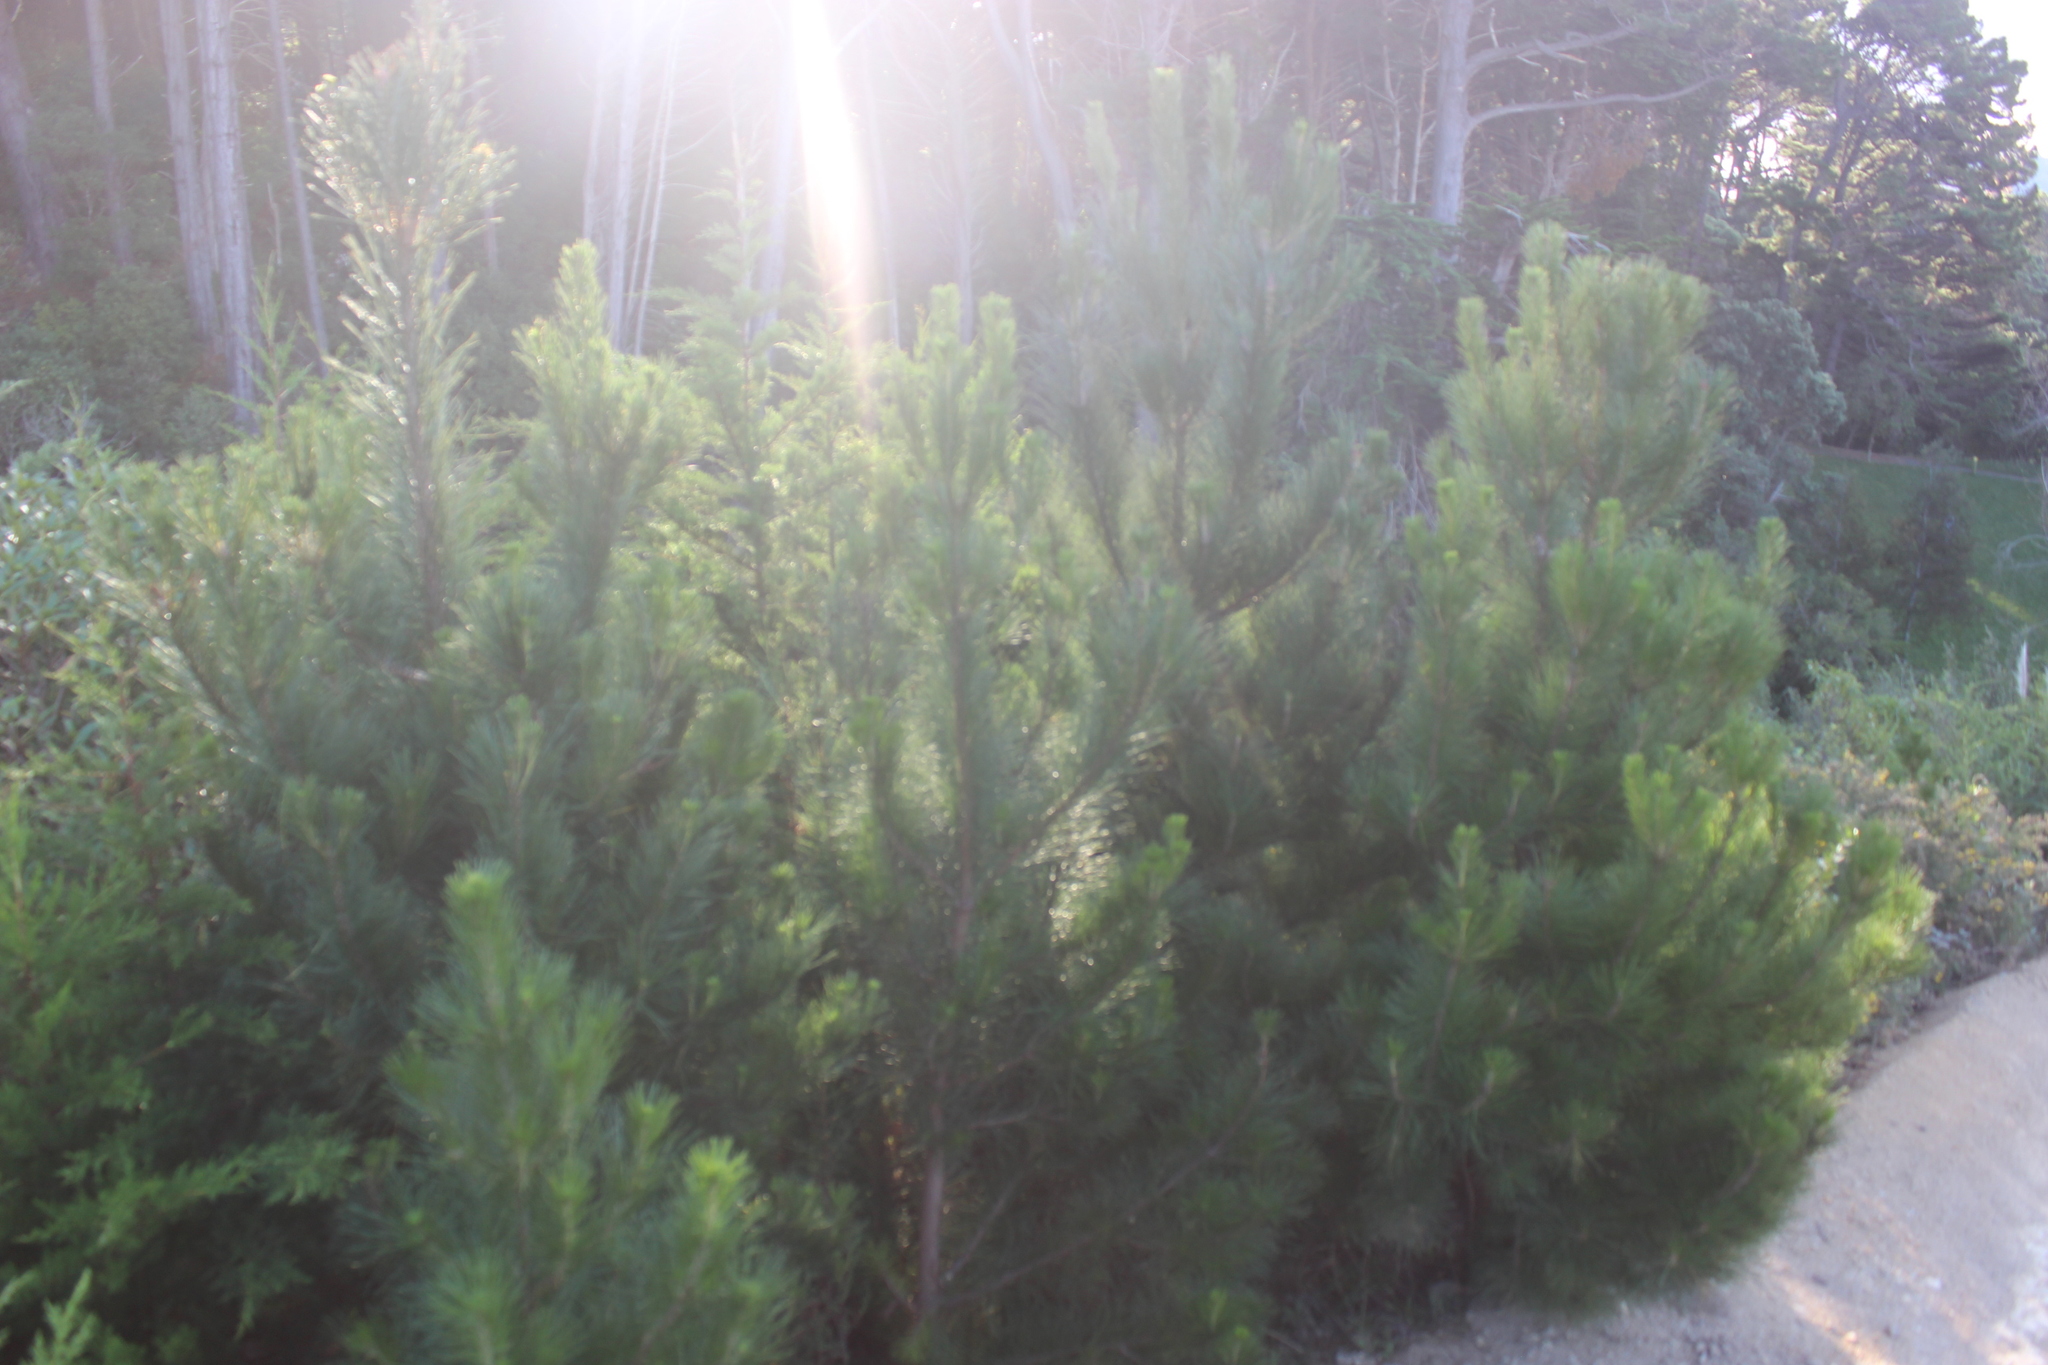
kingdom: Plantae
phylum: Tracheophyta
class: Pinopsida
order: Pinales
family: Pinaceae
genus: Pinus
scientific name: Pinus radiata
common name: Monterey pine
